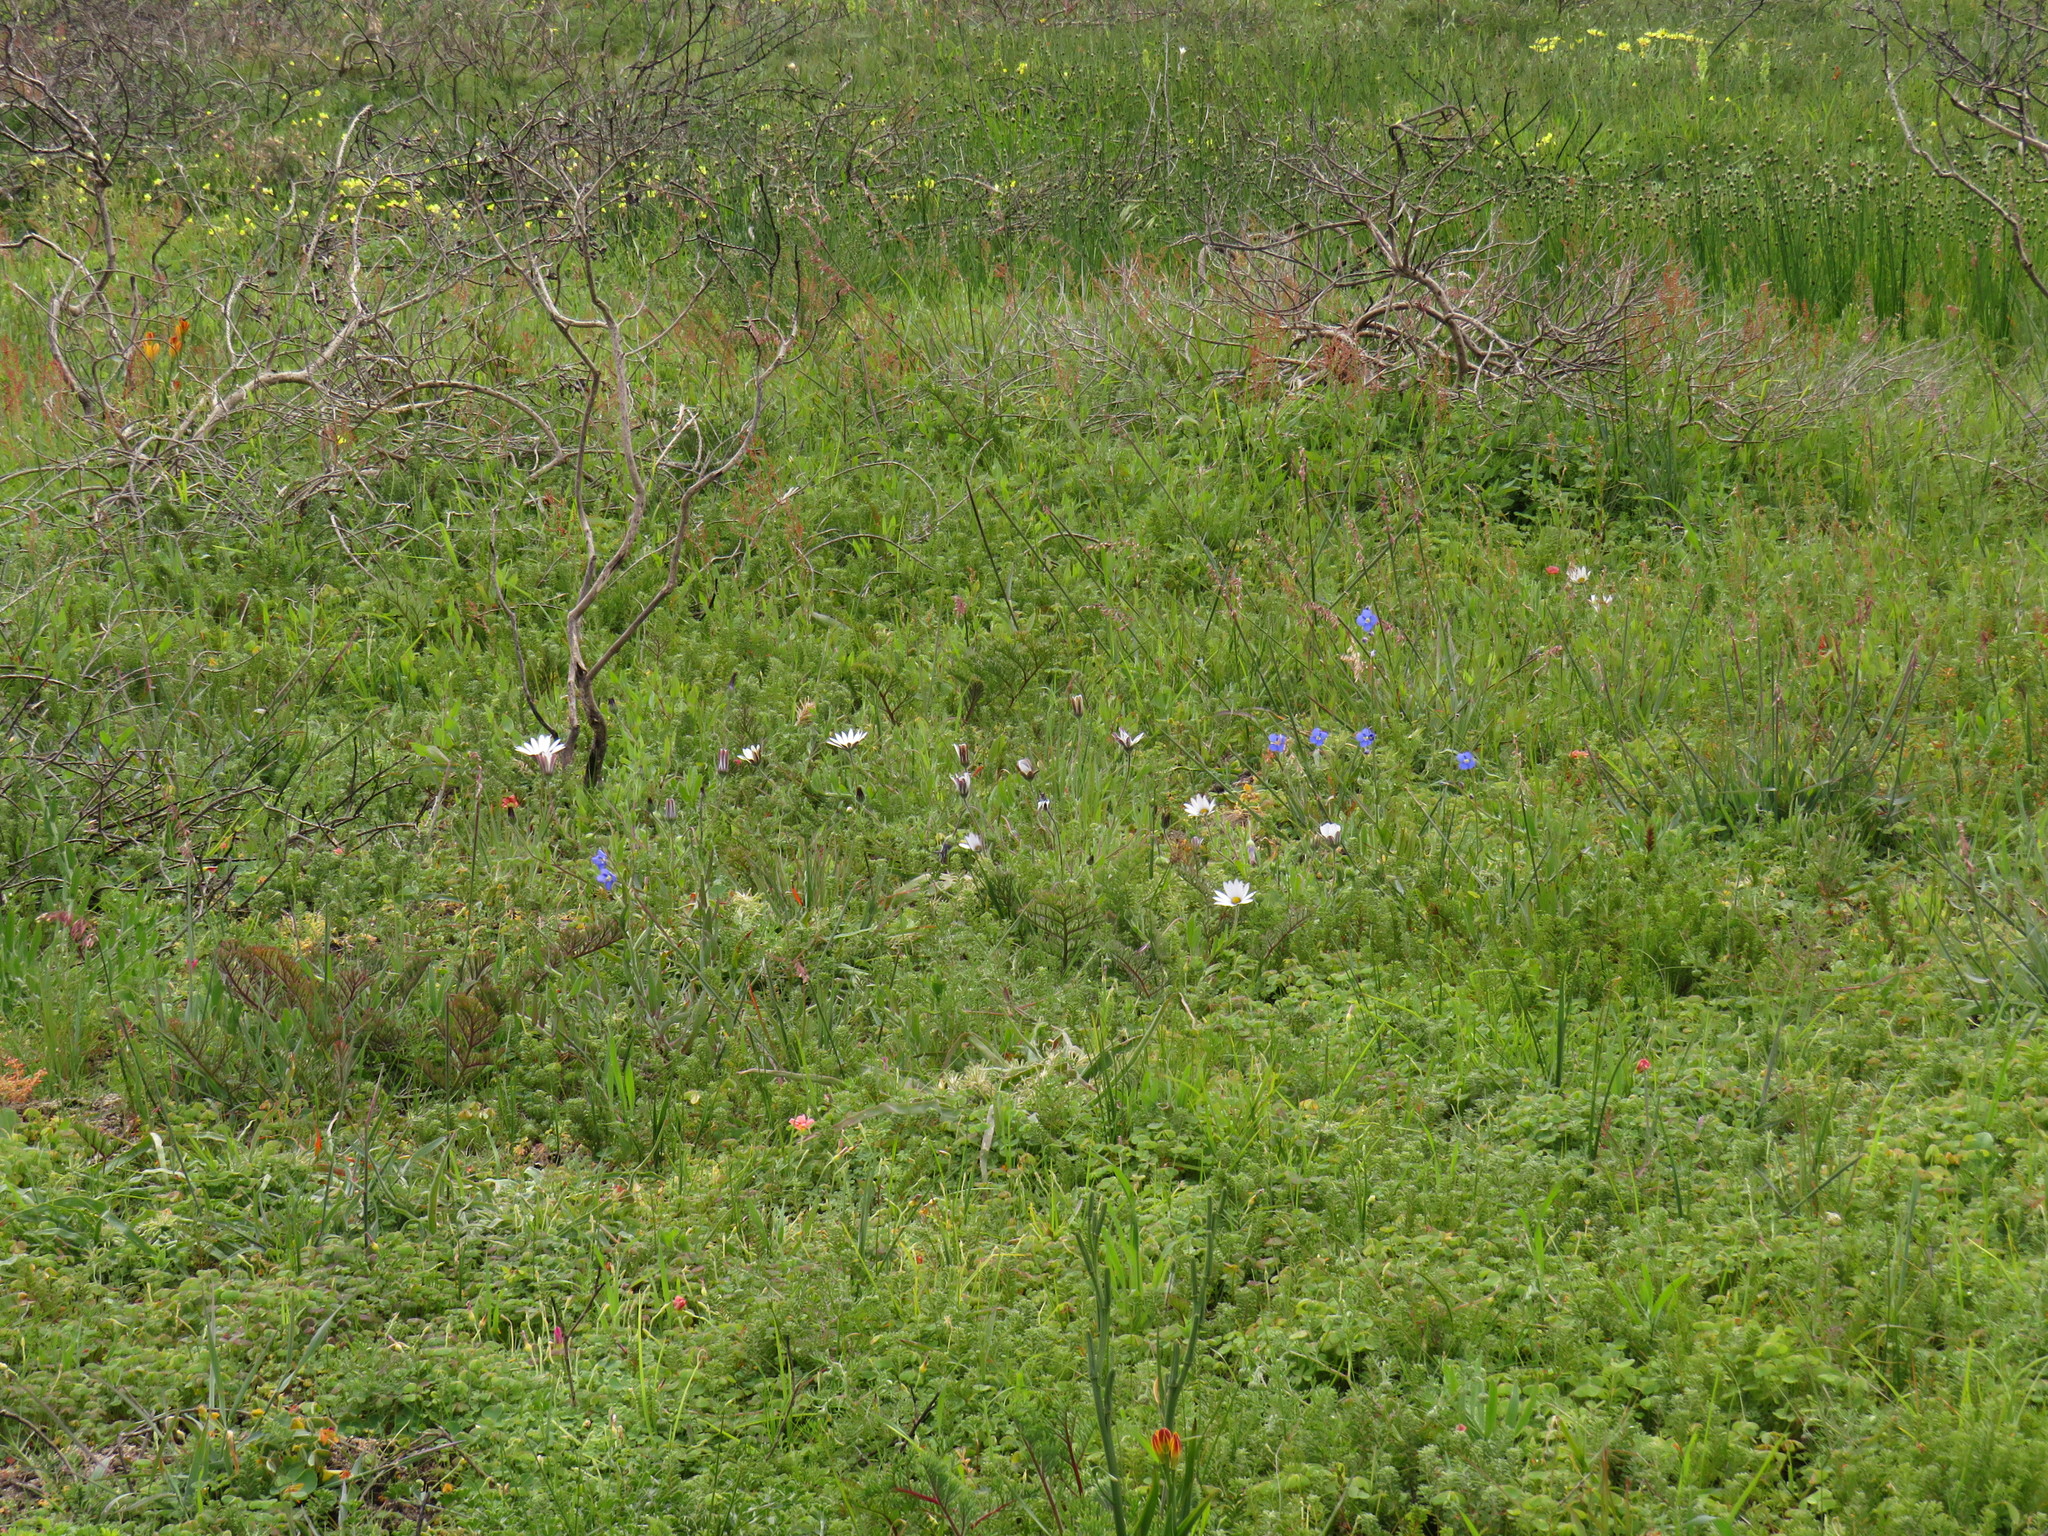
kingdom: Plantae
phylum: Tracheophyta
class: Magnoliopsida
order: Brassicales
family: Brassicaceae
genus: Heliophila
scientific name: Heliophila africana
